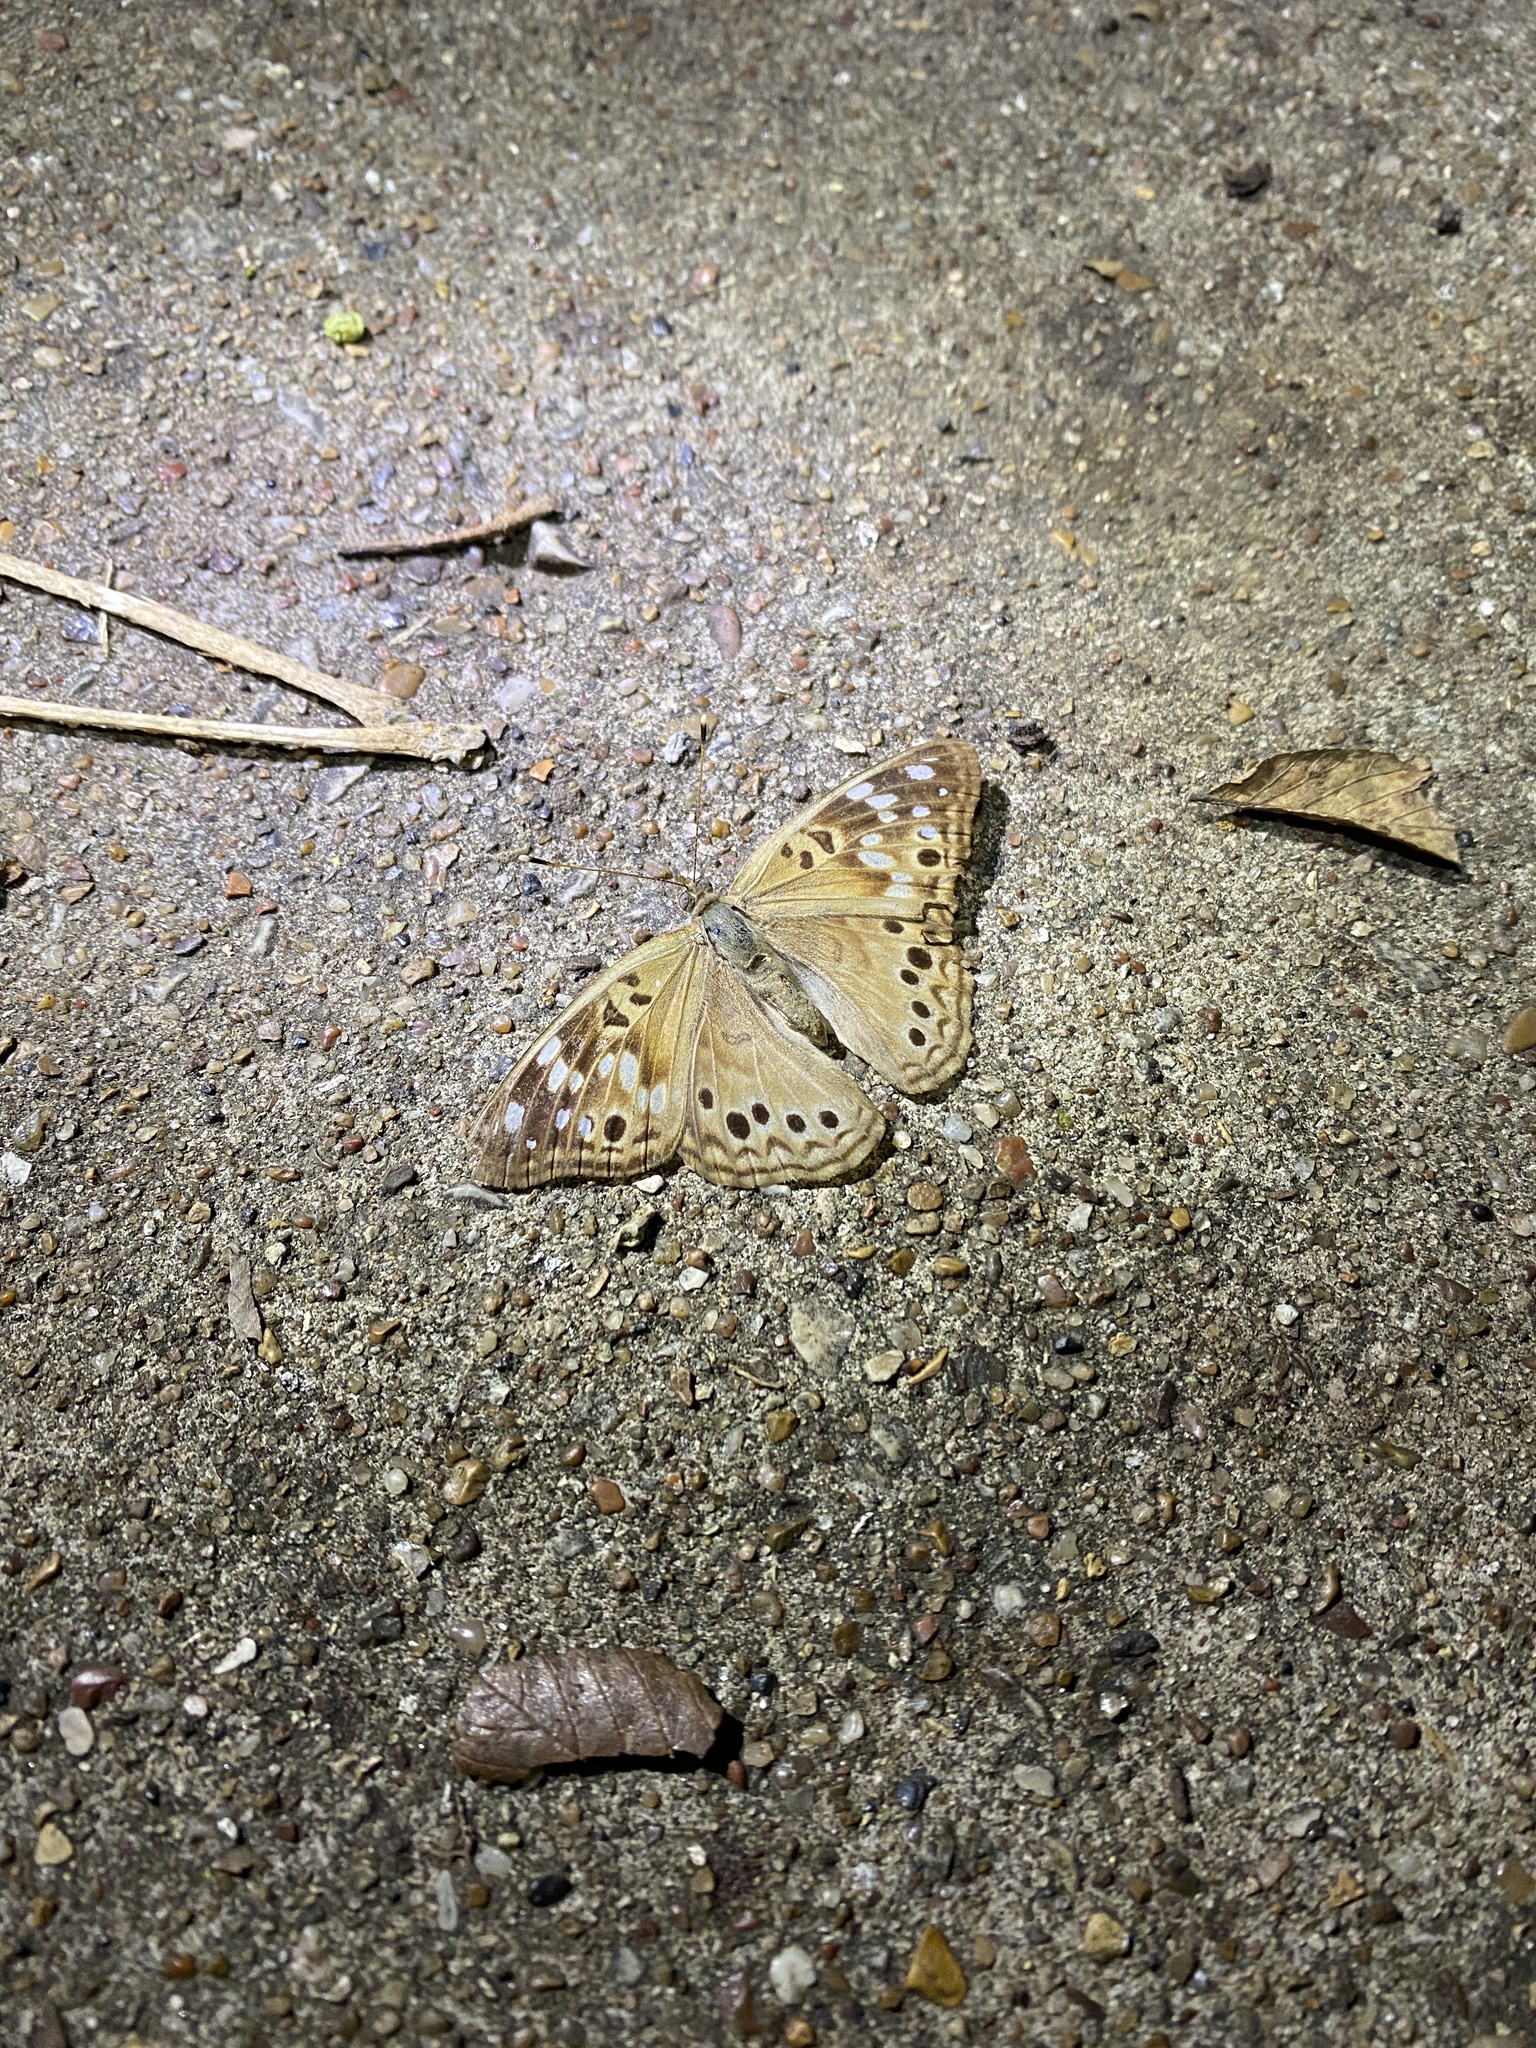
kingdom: Animalia
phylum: Arthropoda
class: Insecta
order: Lepidoptera
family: Nymphalidae
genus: Asterocampa
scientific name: Asterocampa celtis
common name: Hackberry emperor
